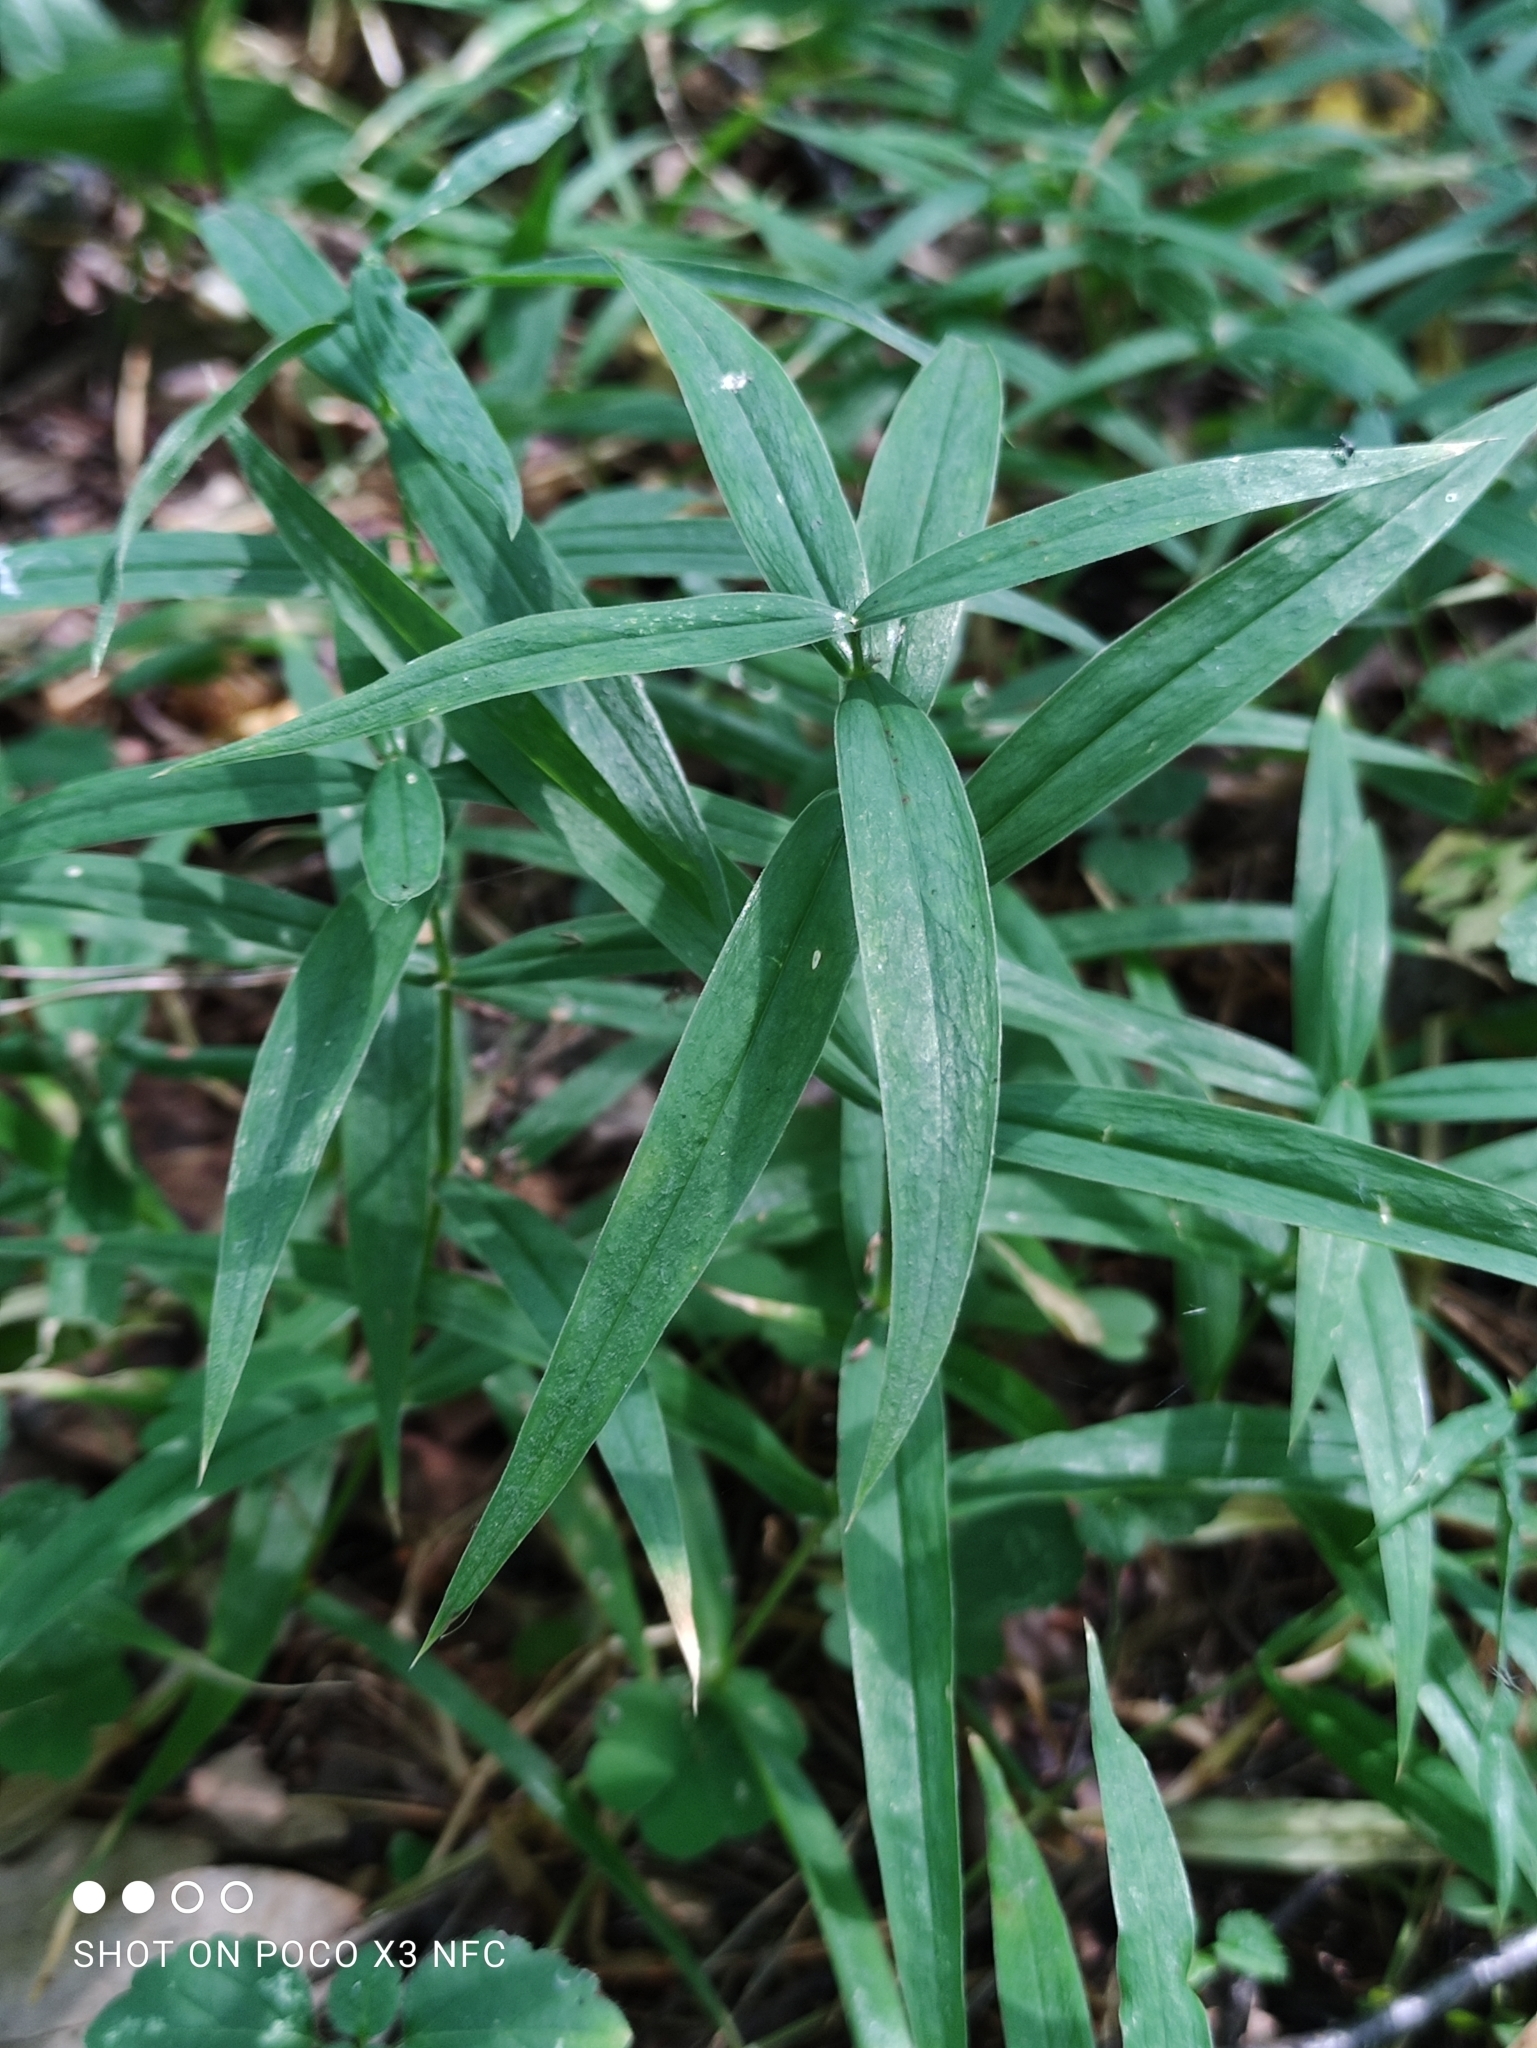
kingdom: Plantae
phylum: Tracheophyta
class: Magnoliopsida
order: Caryophyllales
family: Caryophyllaceae
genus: Rabelera
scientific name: Rabelera holostea
